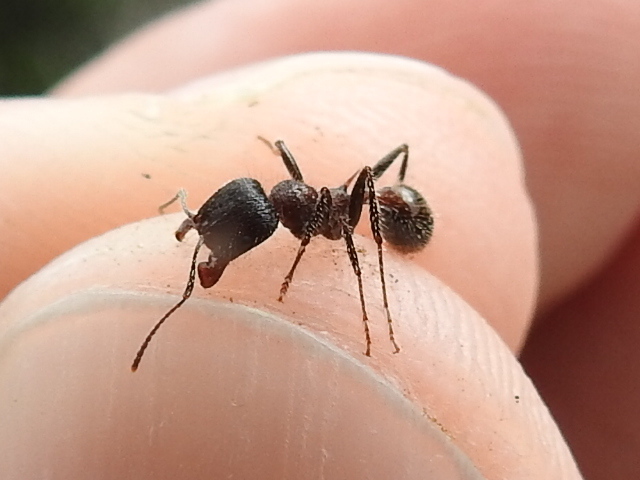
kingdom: Animalia
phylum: Arthropoda
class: Insecta
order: Hymenoptera
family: Formicidae
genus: Veromessor
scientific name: Veromessor andrei
